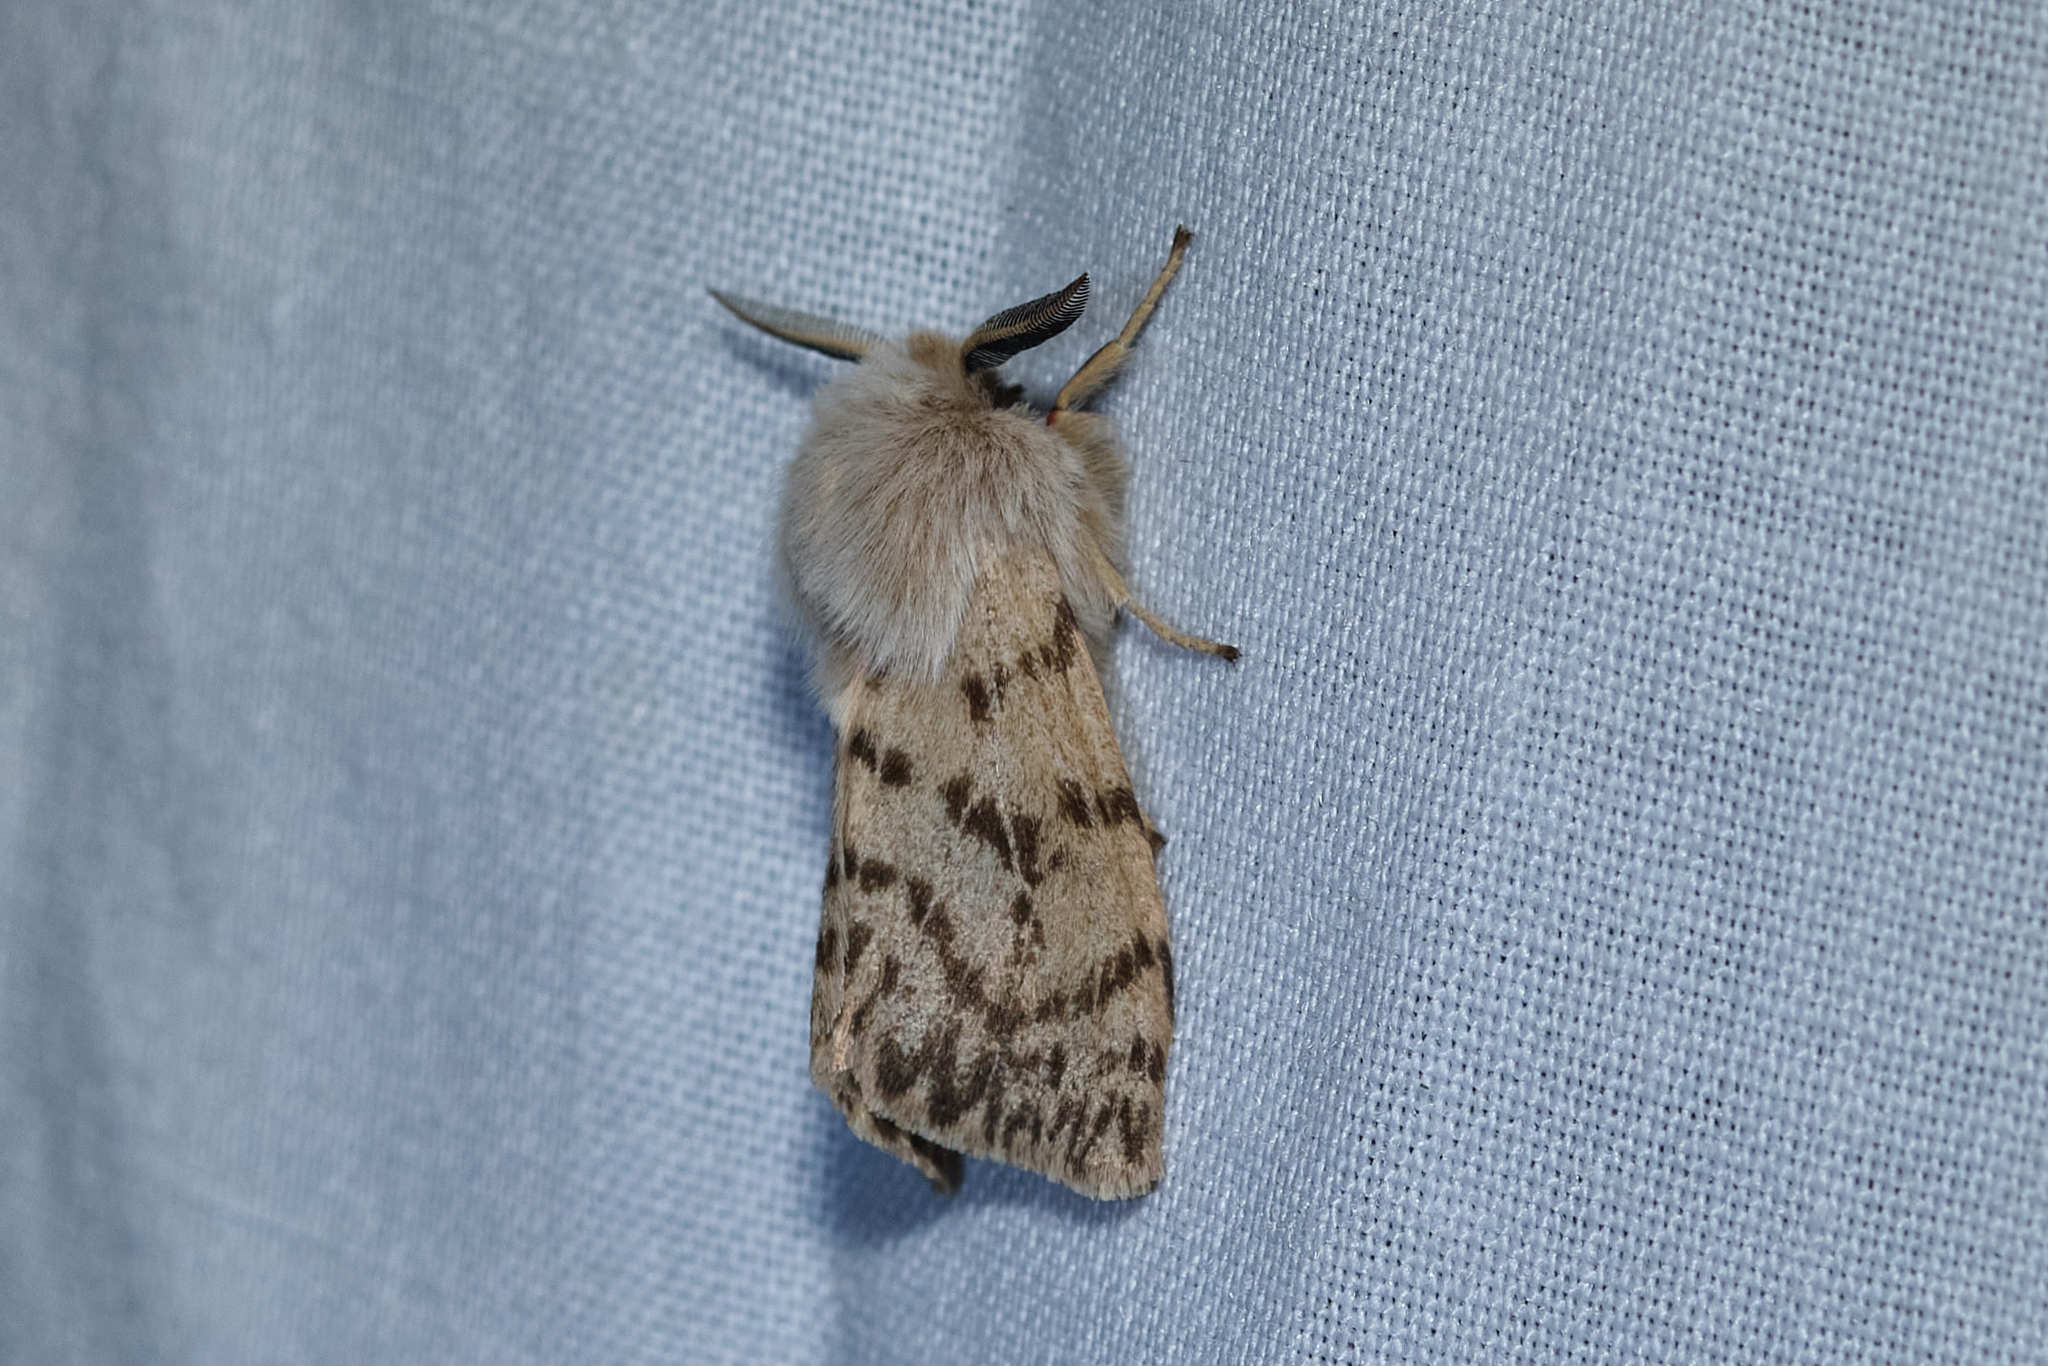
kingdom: Animalia
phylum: Arthropoda
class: Insecta
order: Lepidoptera
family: Erebidae
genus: Spilosoma
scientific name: Spilosoma vagans
